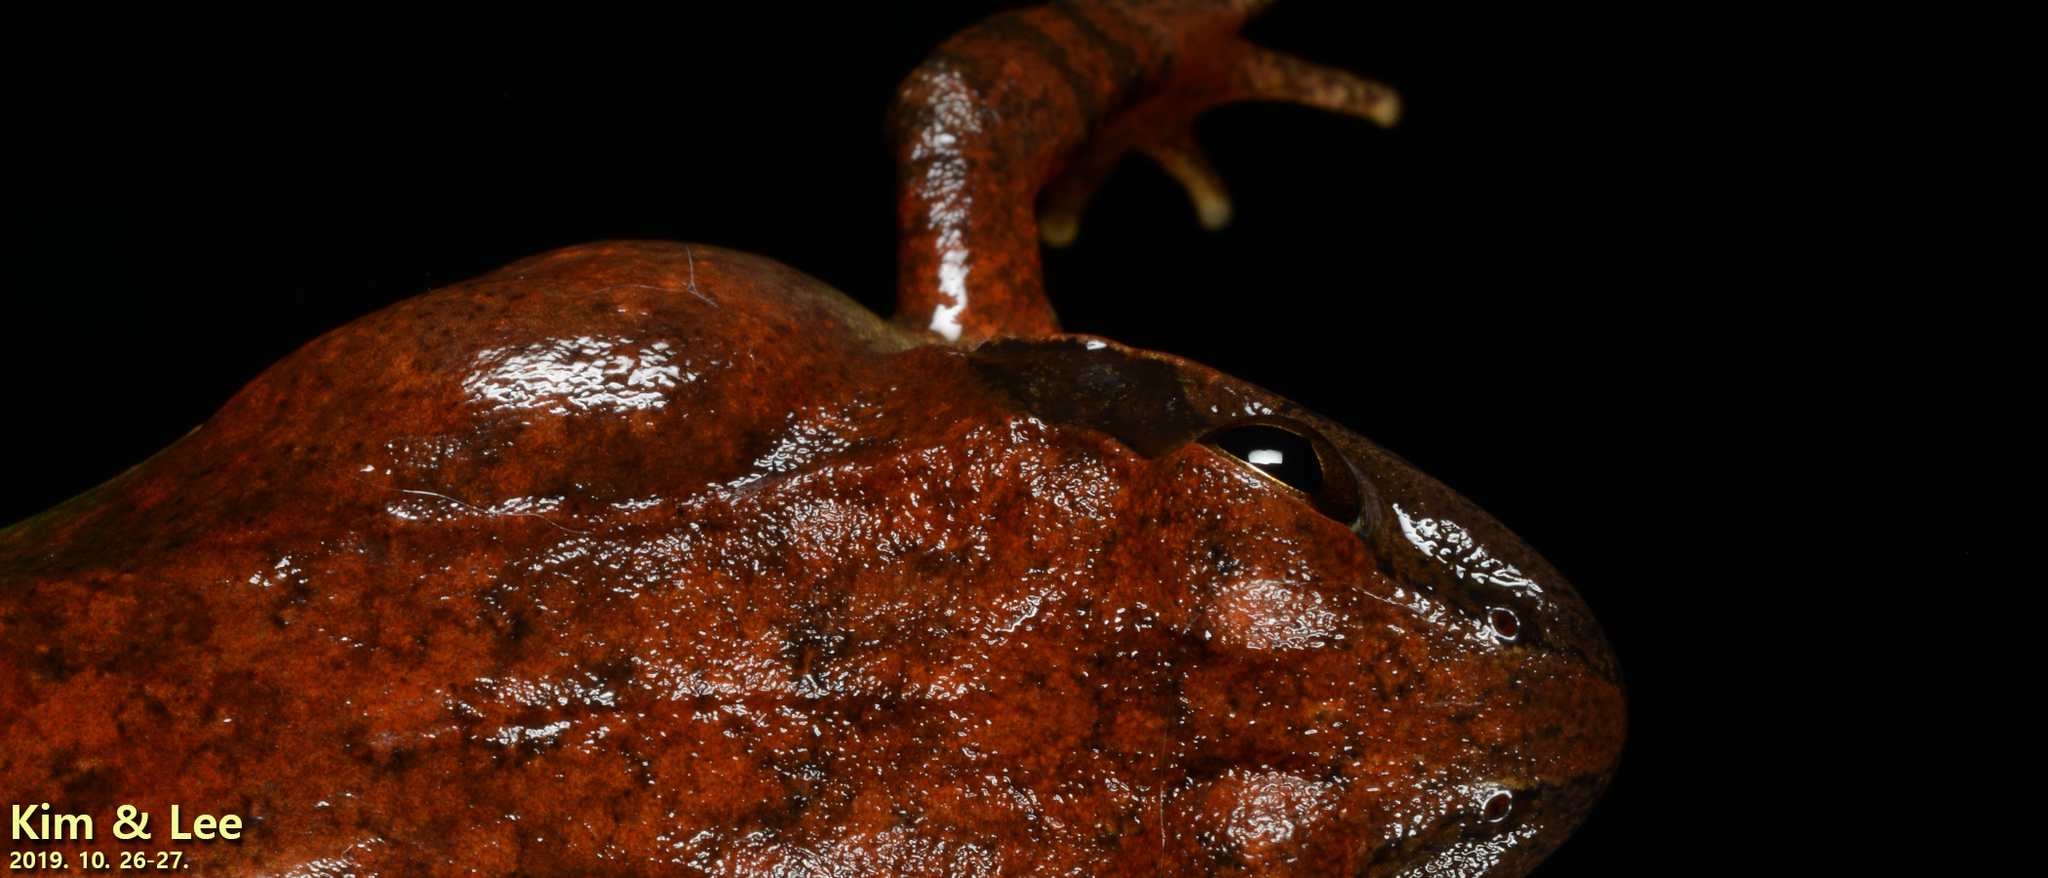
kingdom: Animalia
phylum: Chordata
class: Amphibia
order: Anura
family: Ranidae
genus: Rana
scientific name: Rana huanrenensis
